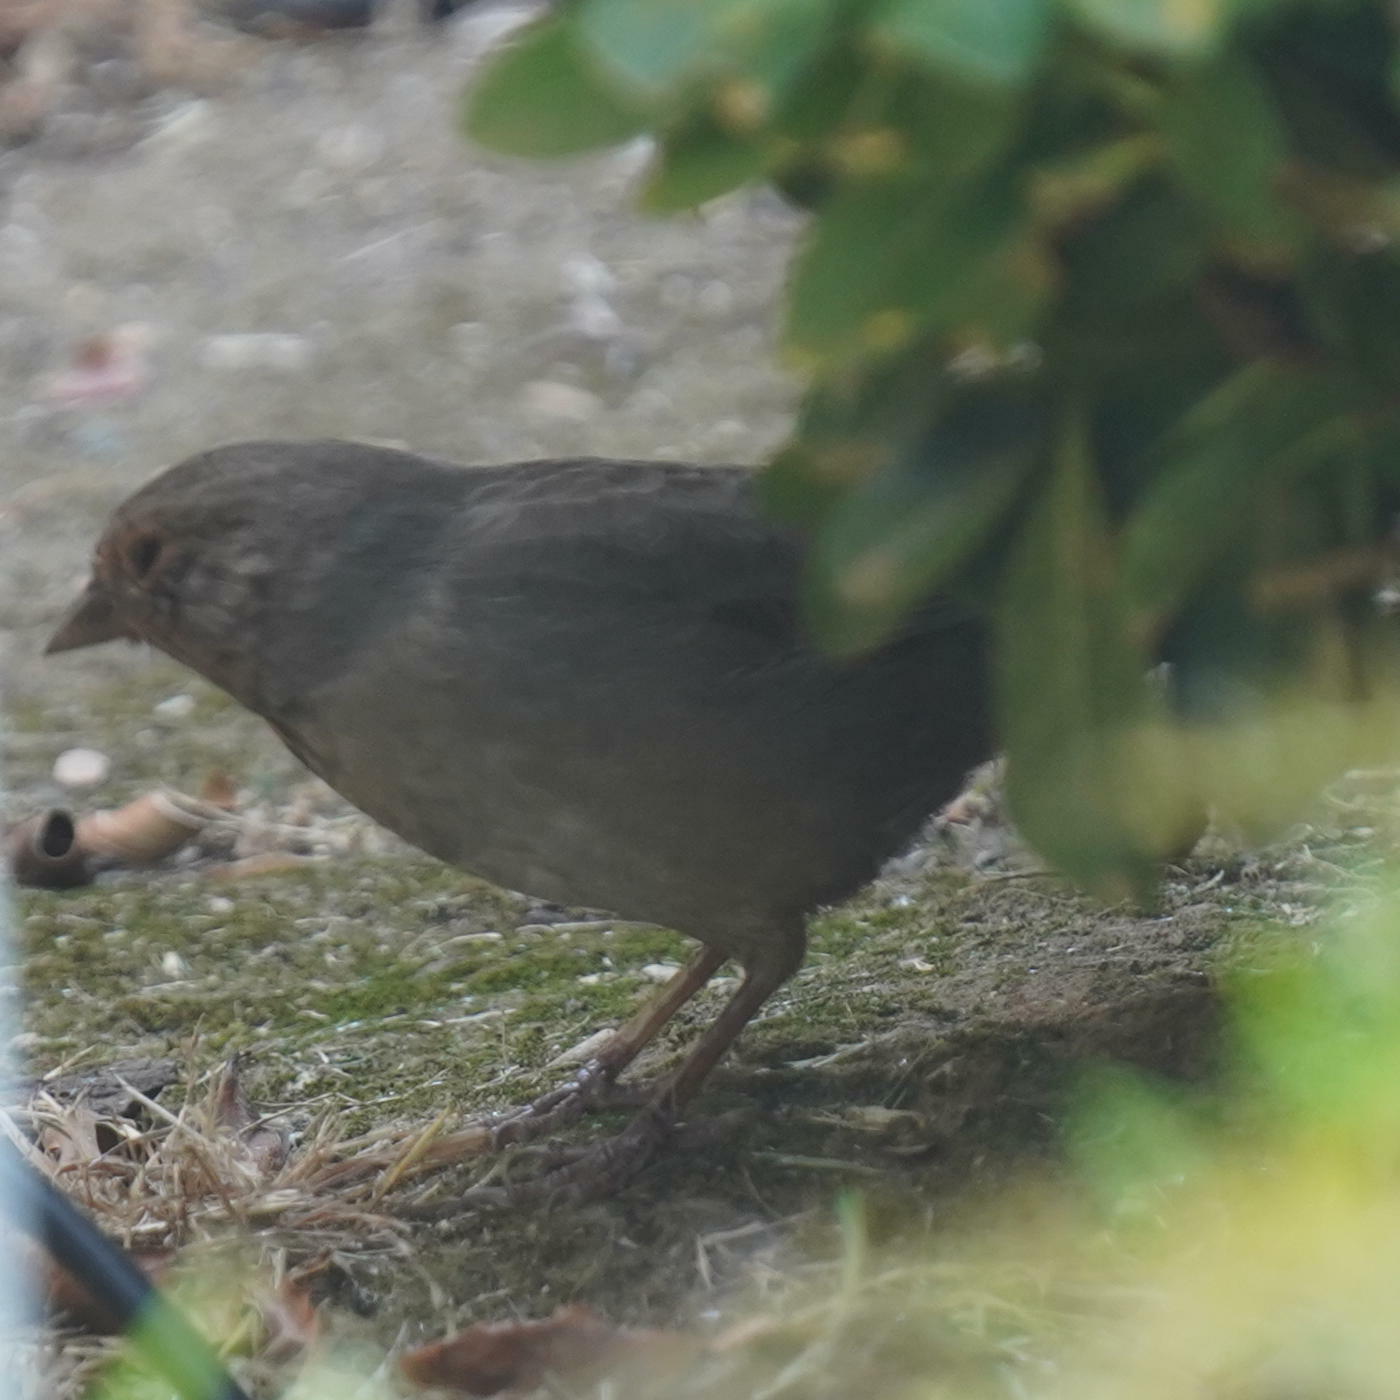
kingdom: Animalia
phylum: Chordata
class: Aves
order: Passeriformes
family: Passerellidae
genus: Melozone
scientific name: Melozone crissalis
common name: California towhee
